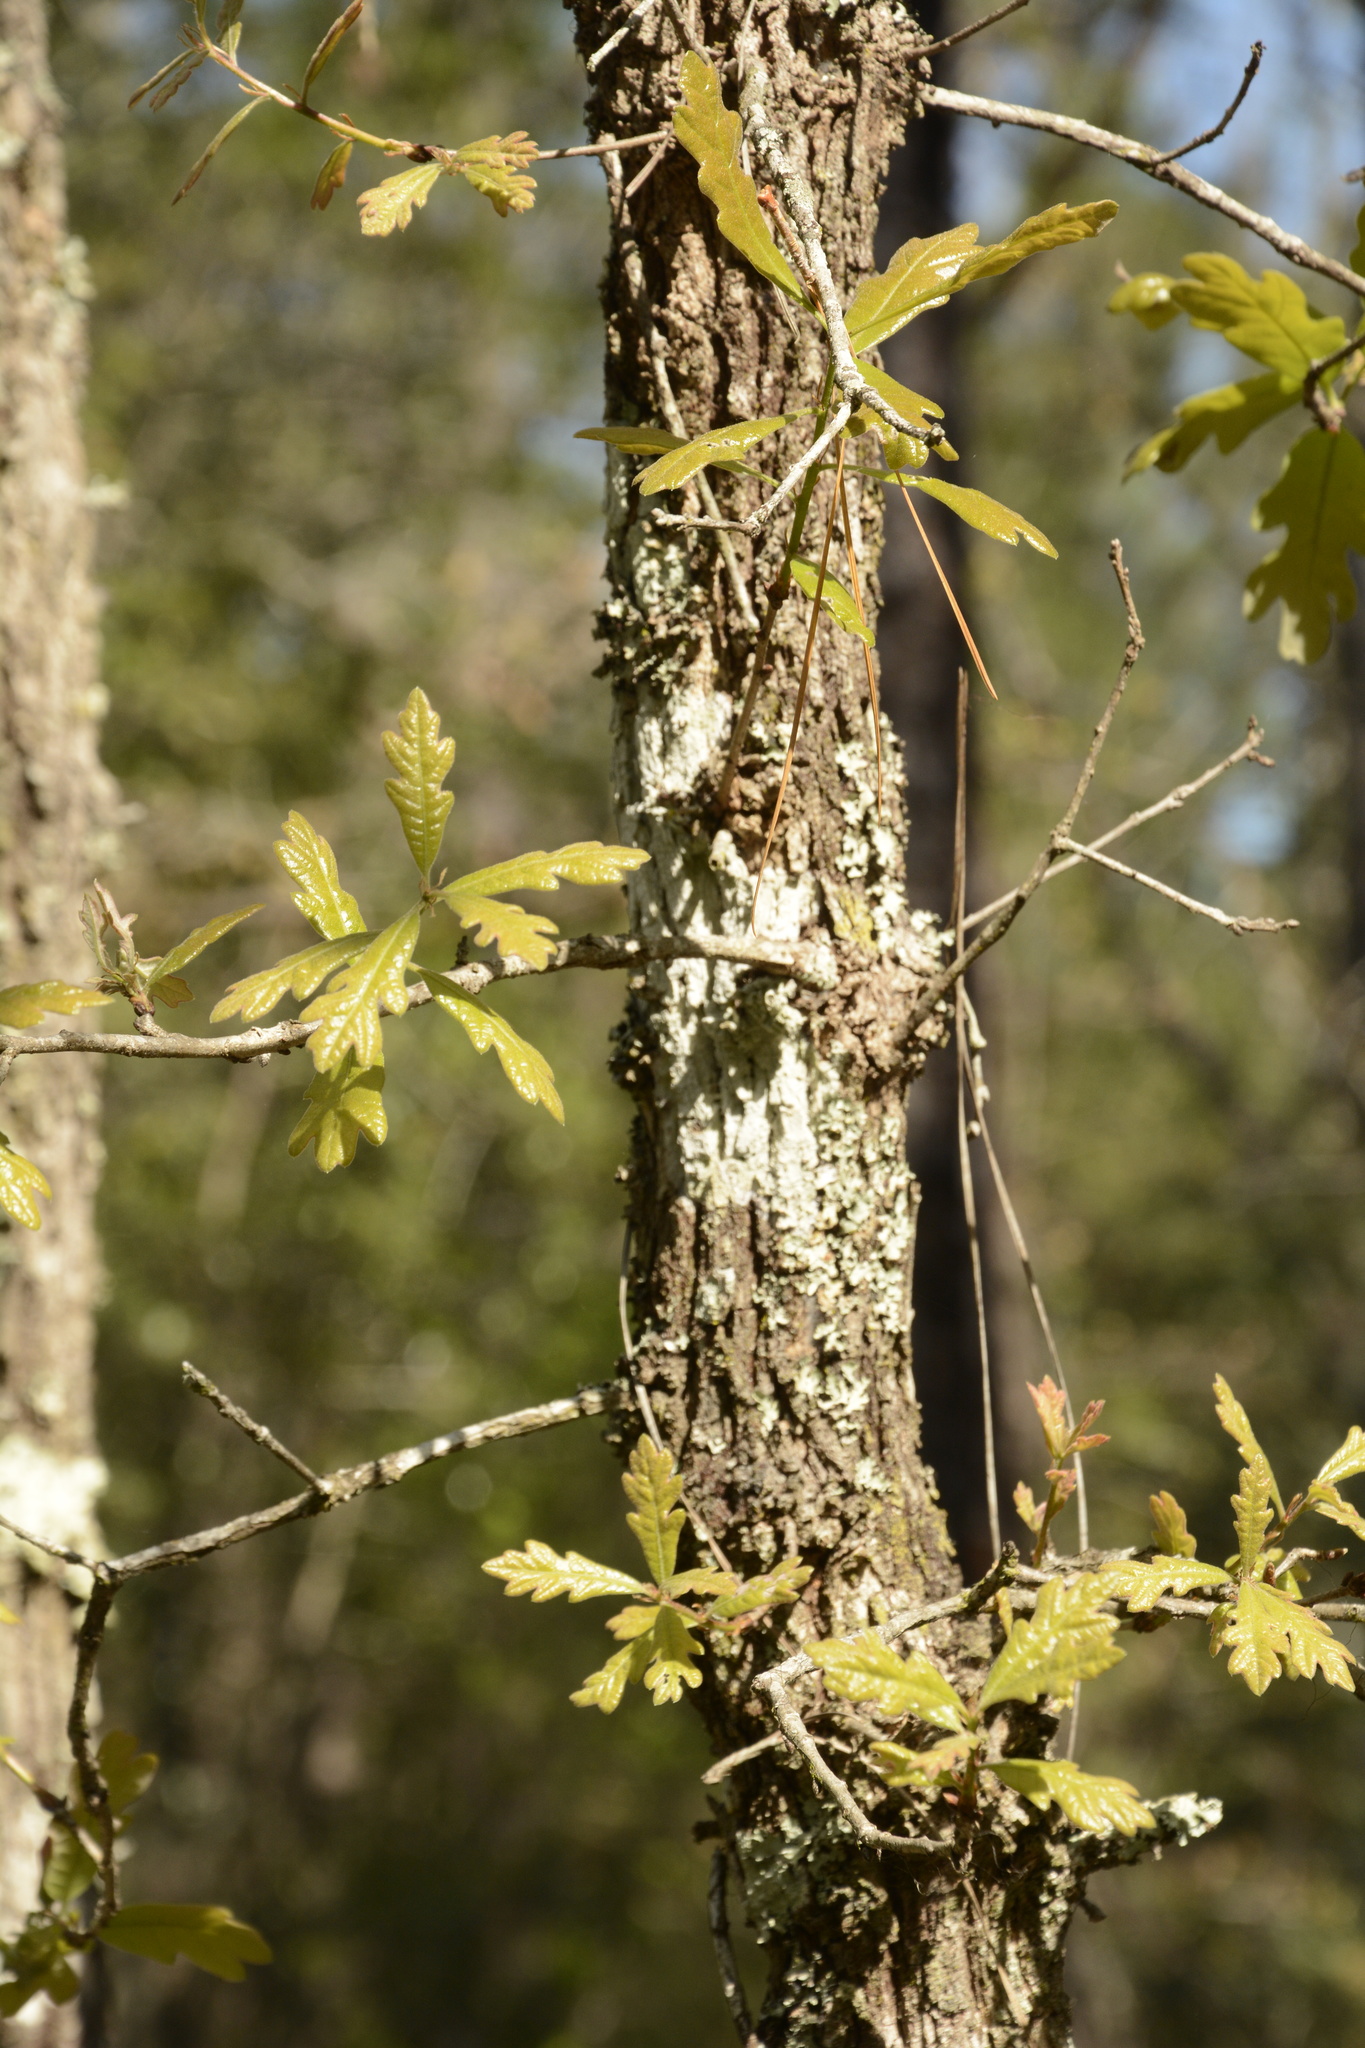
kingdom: Plantae
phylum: Tracheophyta
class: Magnoliopsida
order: Fagales
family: Fagaceae
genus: Quercus
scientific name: Quercus incana
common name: Bluejack oak
